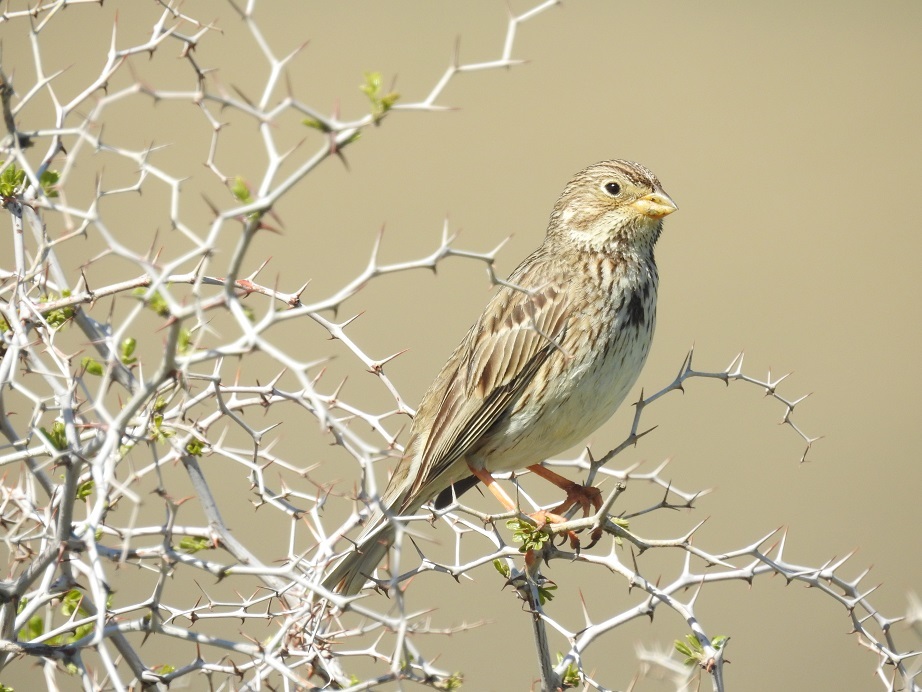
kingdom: Animalia
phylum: Chordata
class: Aves
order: Passeriformes
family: Emberizidae
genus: Emberiza
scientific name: Emberiza calandra
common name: Corn bunting
